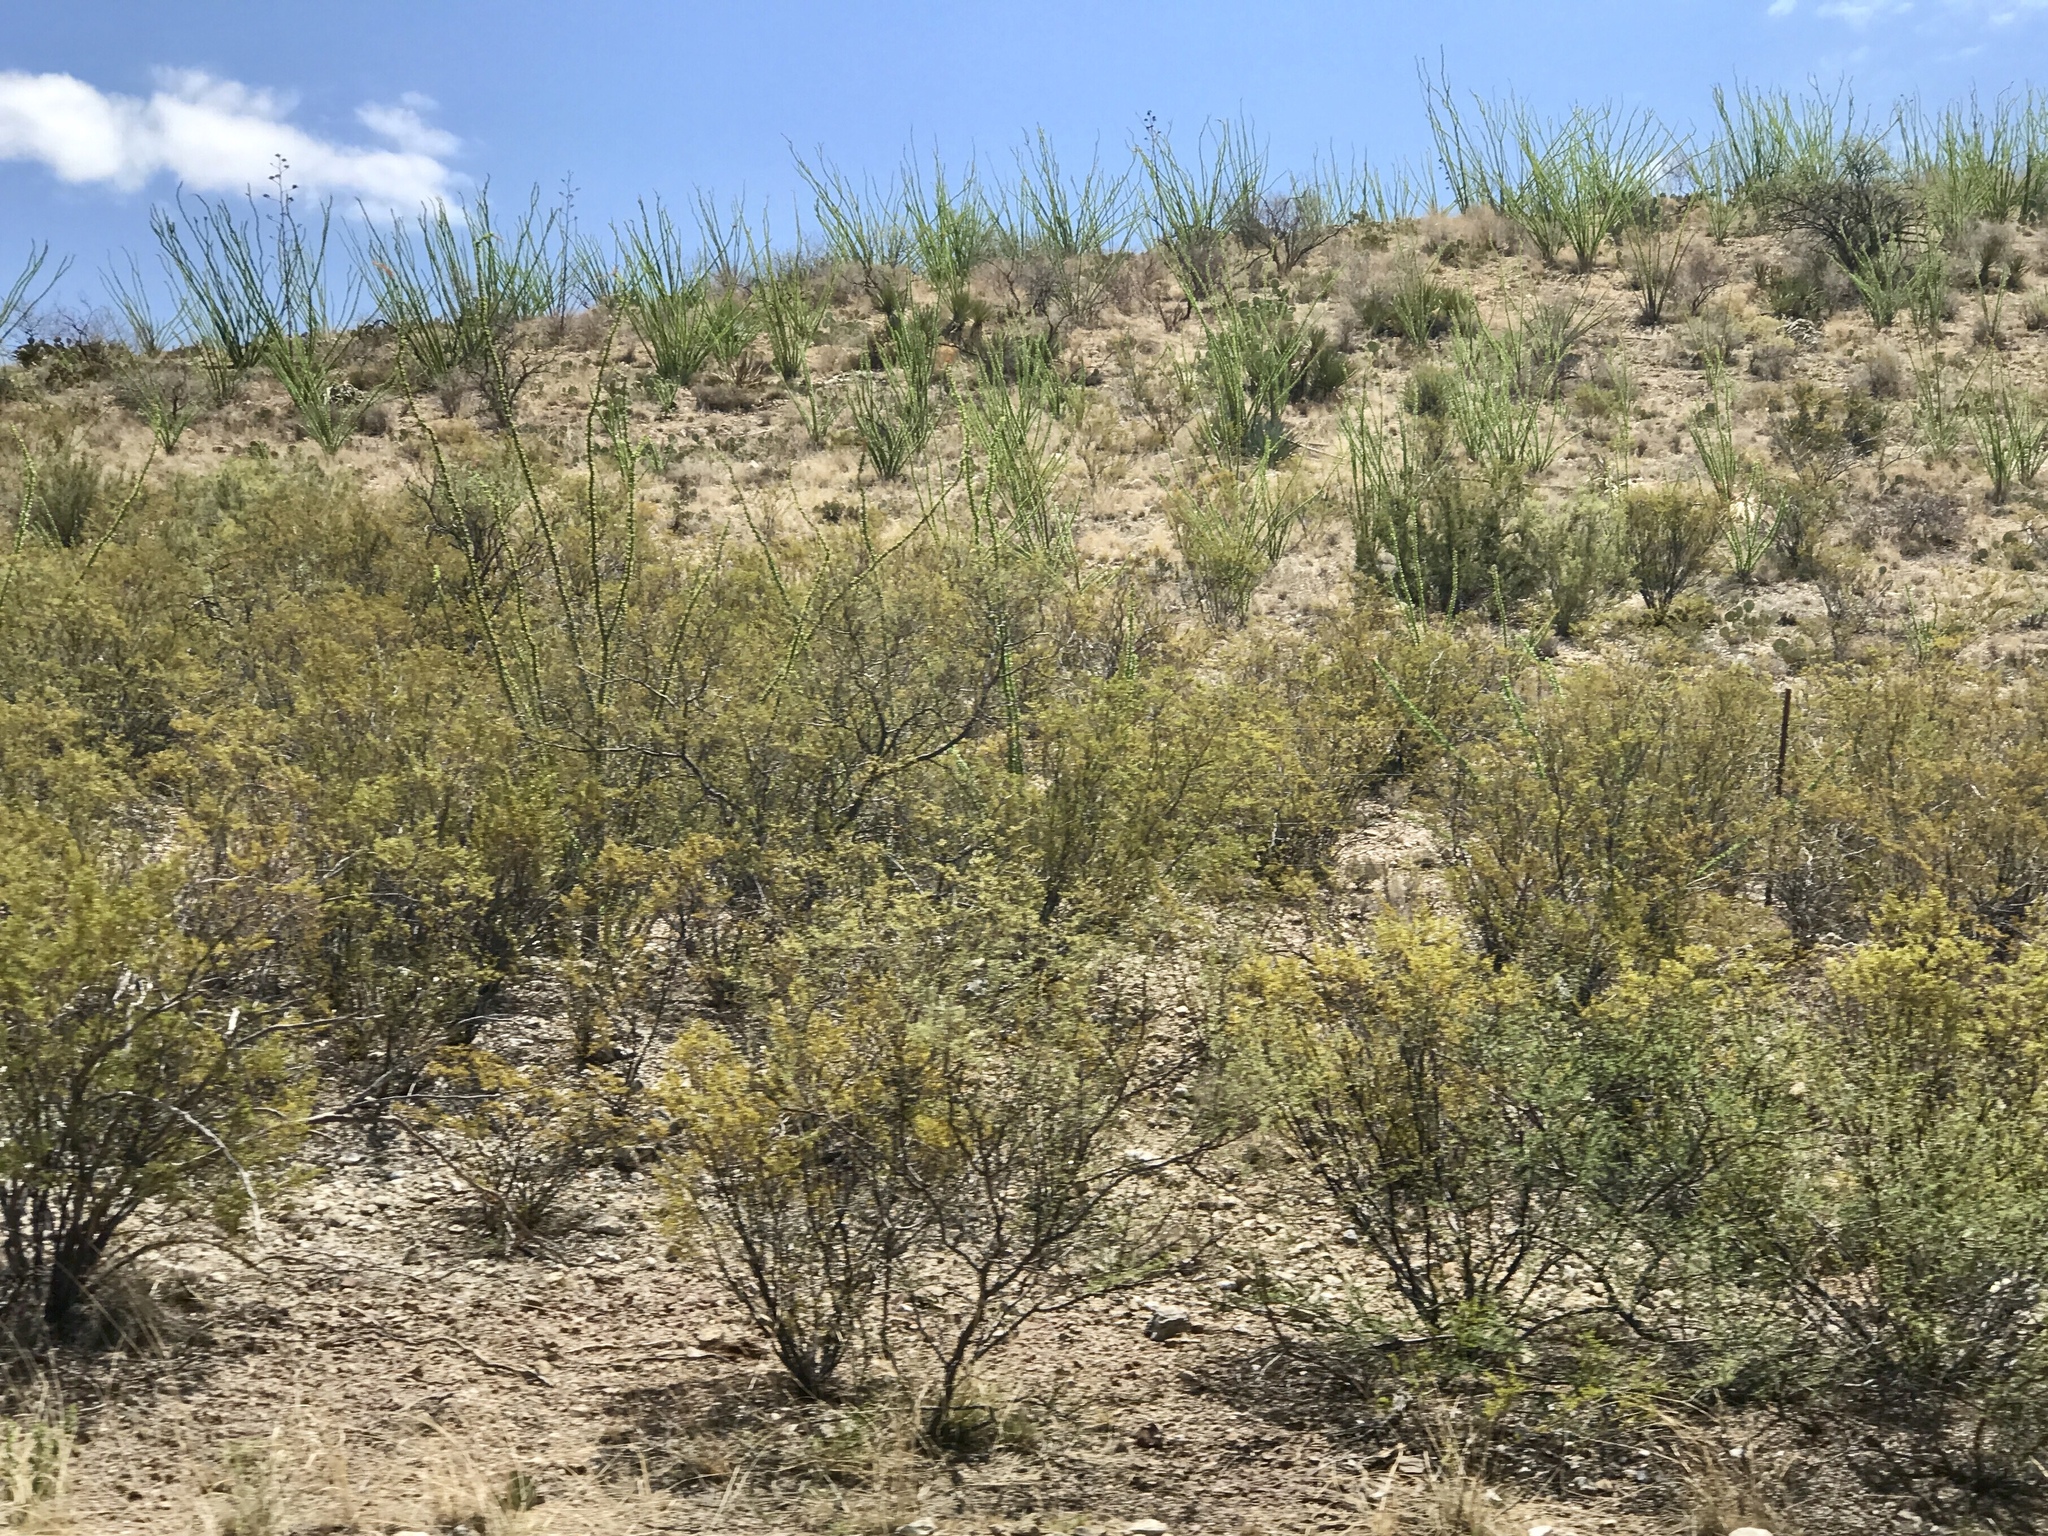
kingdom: Plantae
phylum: Tracheophyta
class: Magnoliopsida
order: Zygophyllales
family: Zygophyllaceae
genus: Larrea
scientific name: Larrea tridentata
